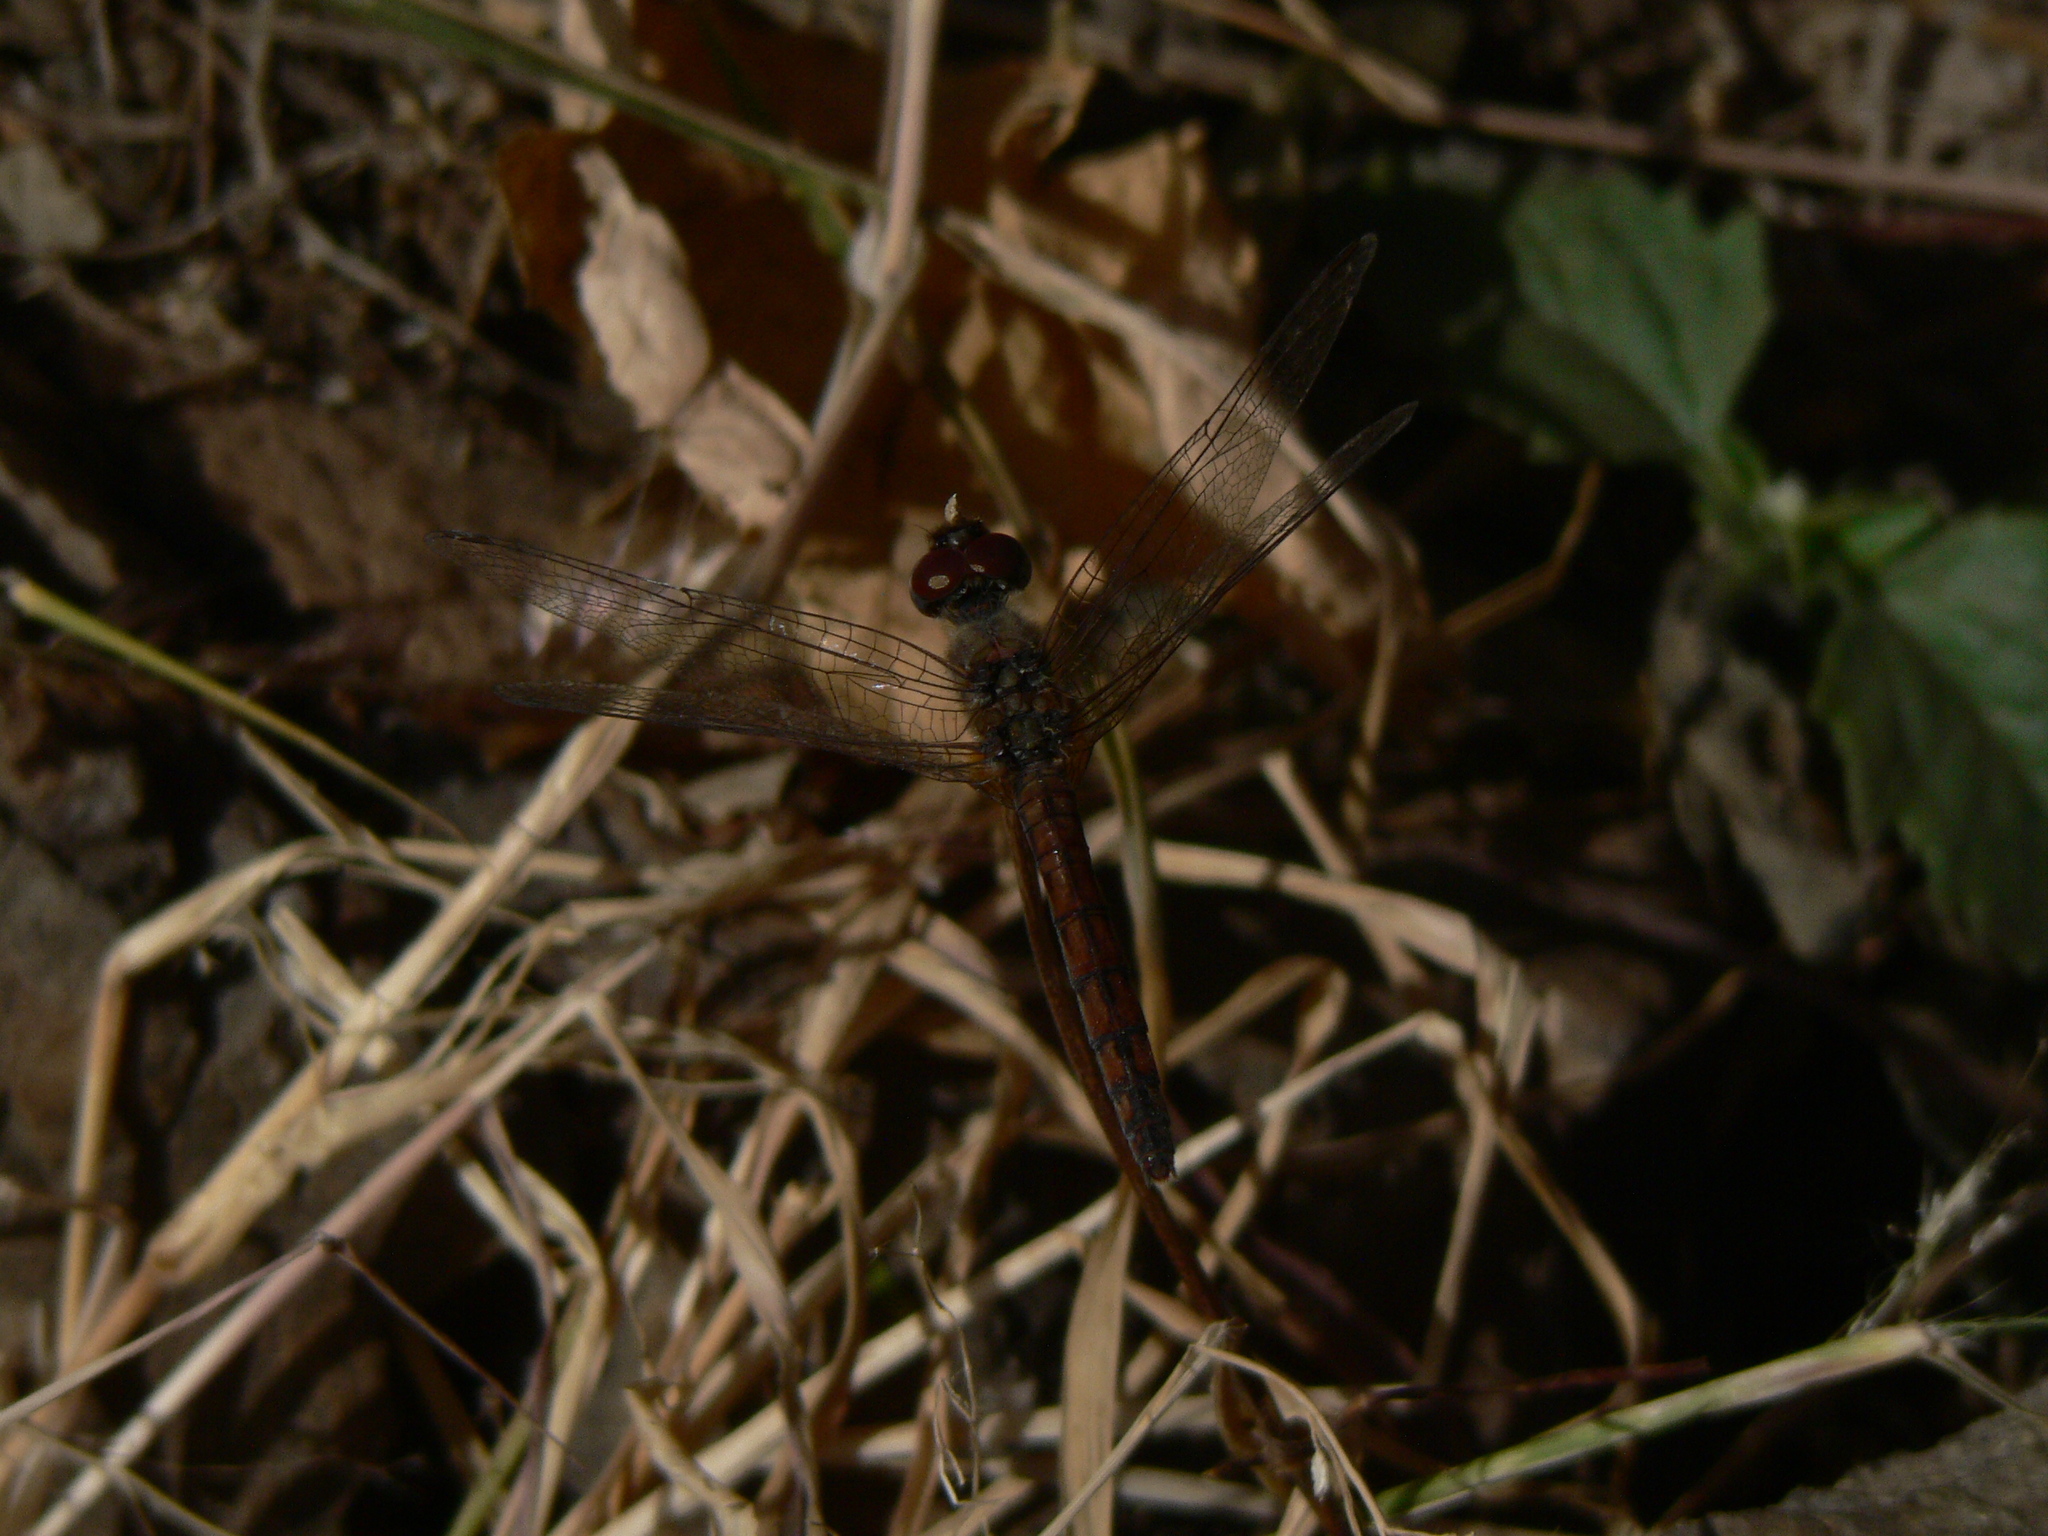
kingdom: Animalia
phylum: Arthropoda
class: Insecta
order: Odonata
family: Libellulidae
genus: Trithemis
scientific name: Trithemis annulata
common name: Violet dropwing
